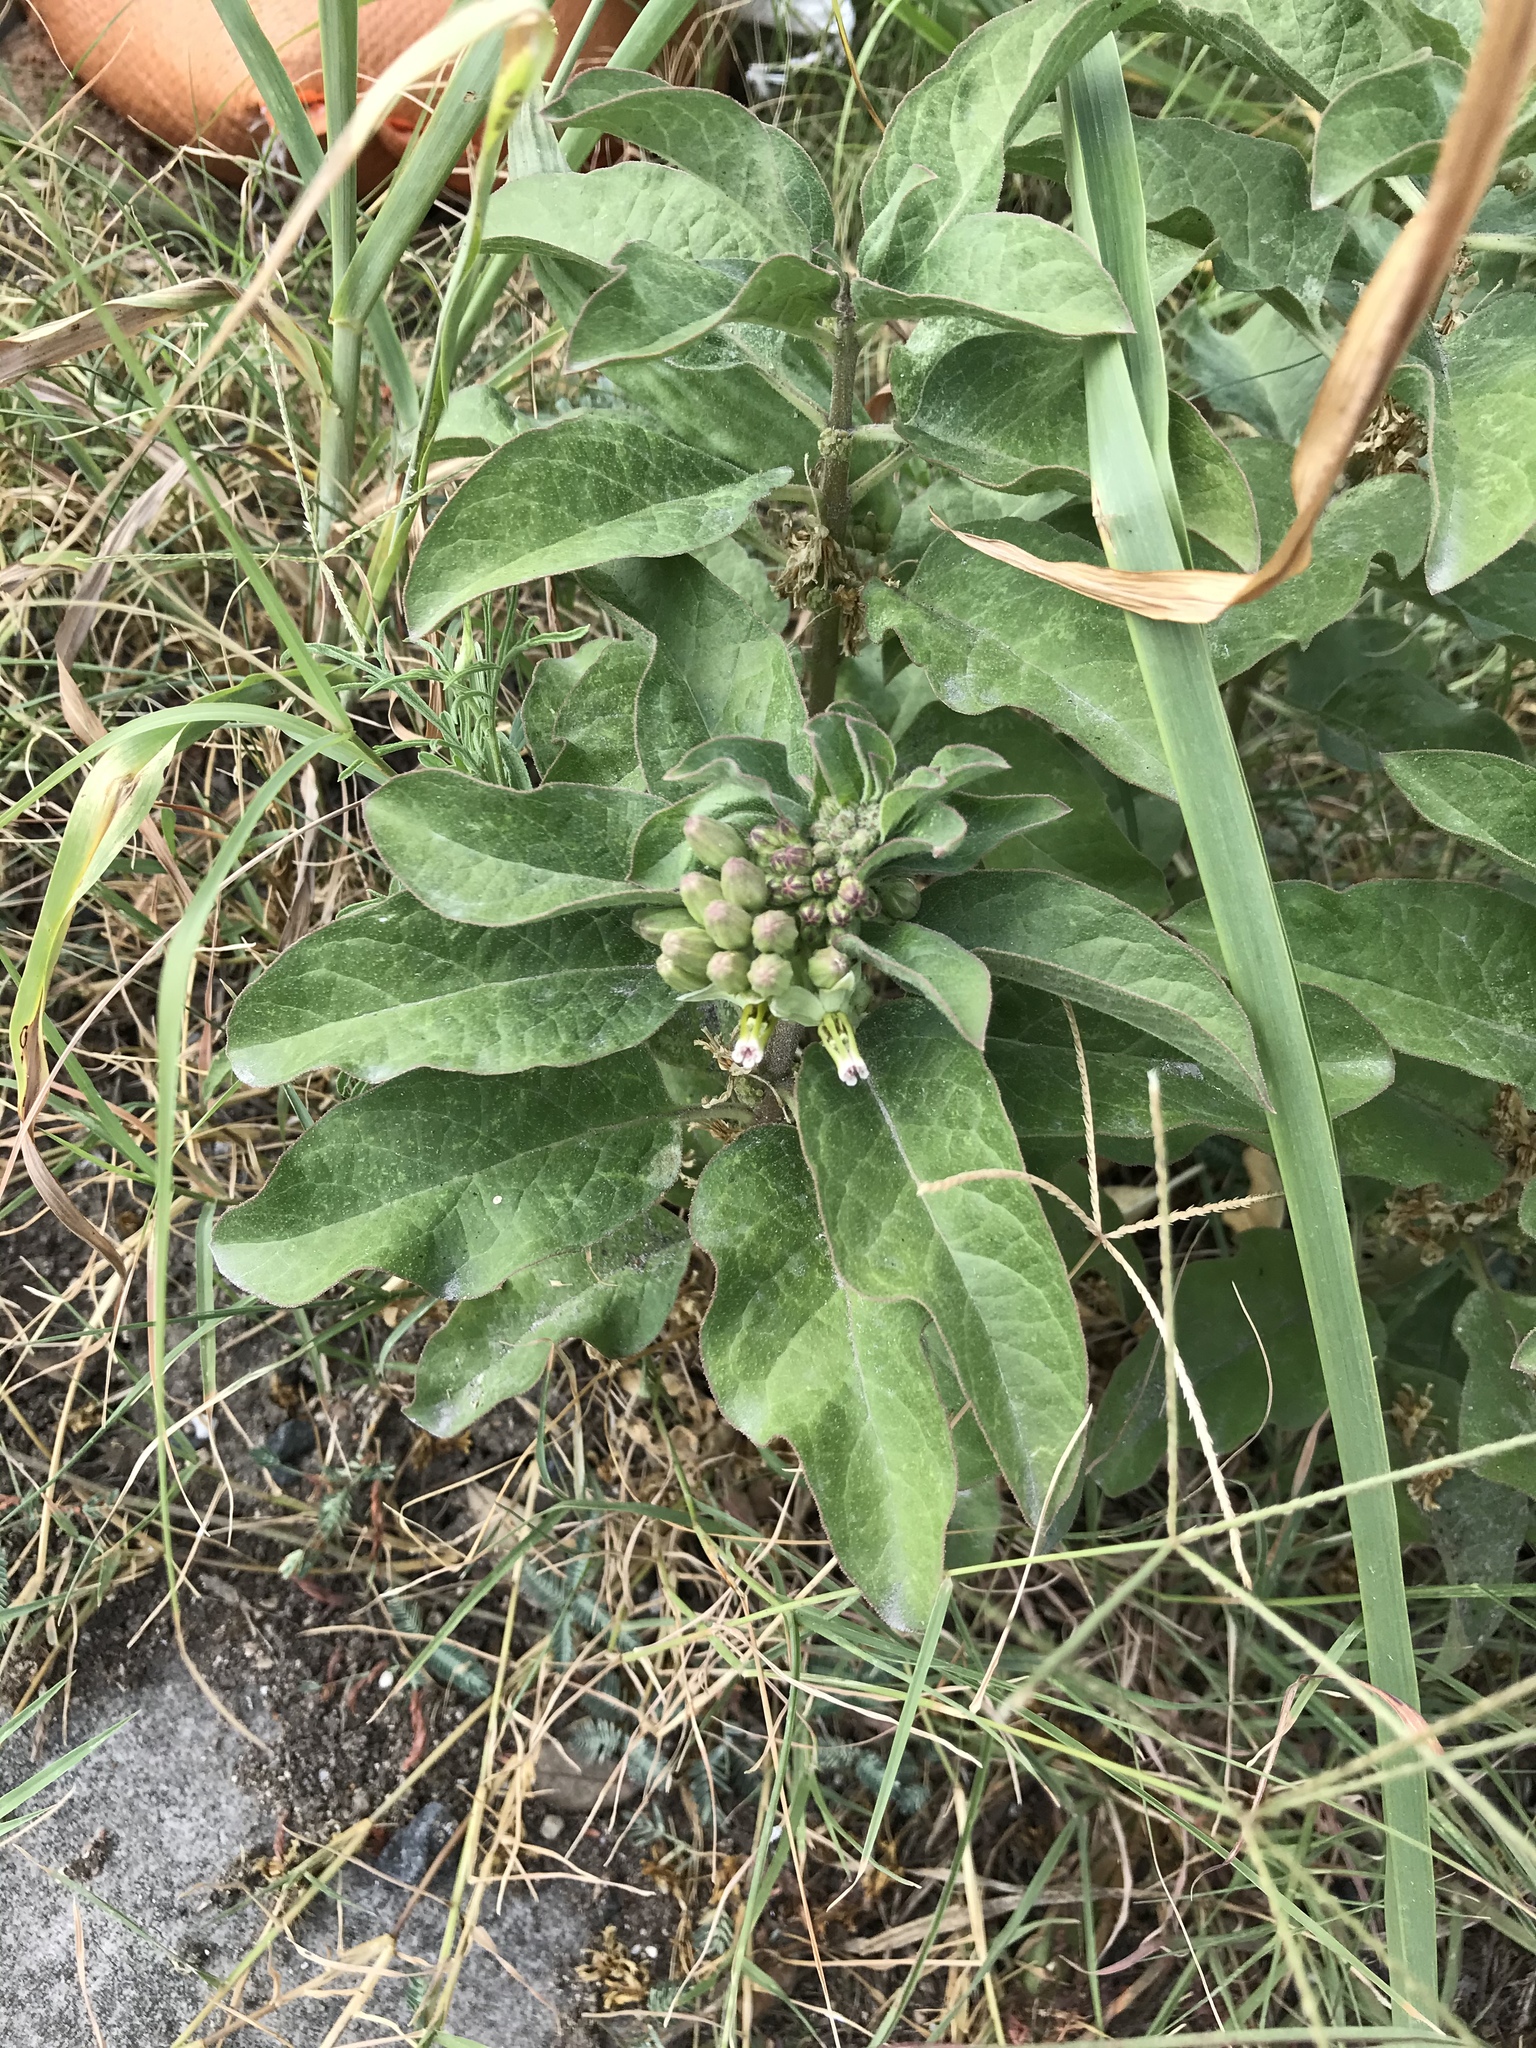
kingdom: Plantae
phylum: Tracheophyta
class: Magnoliopsida
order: Gentianales
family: Apocynaceae
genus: Asclepias
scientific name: Asclepias oenotheroides
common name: Zizotes milkweed
